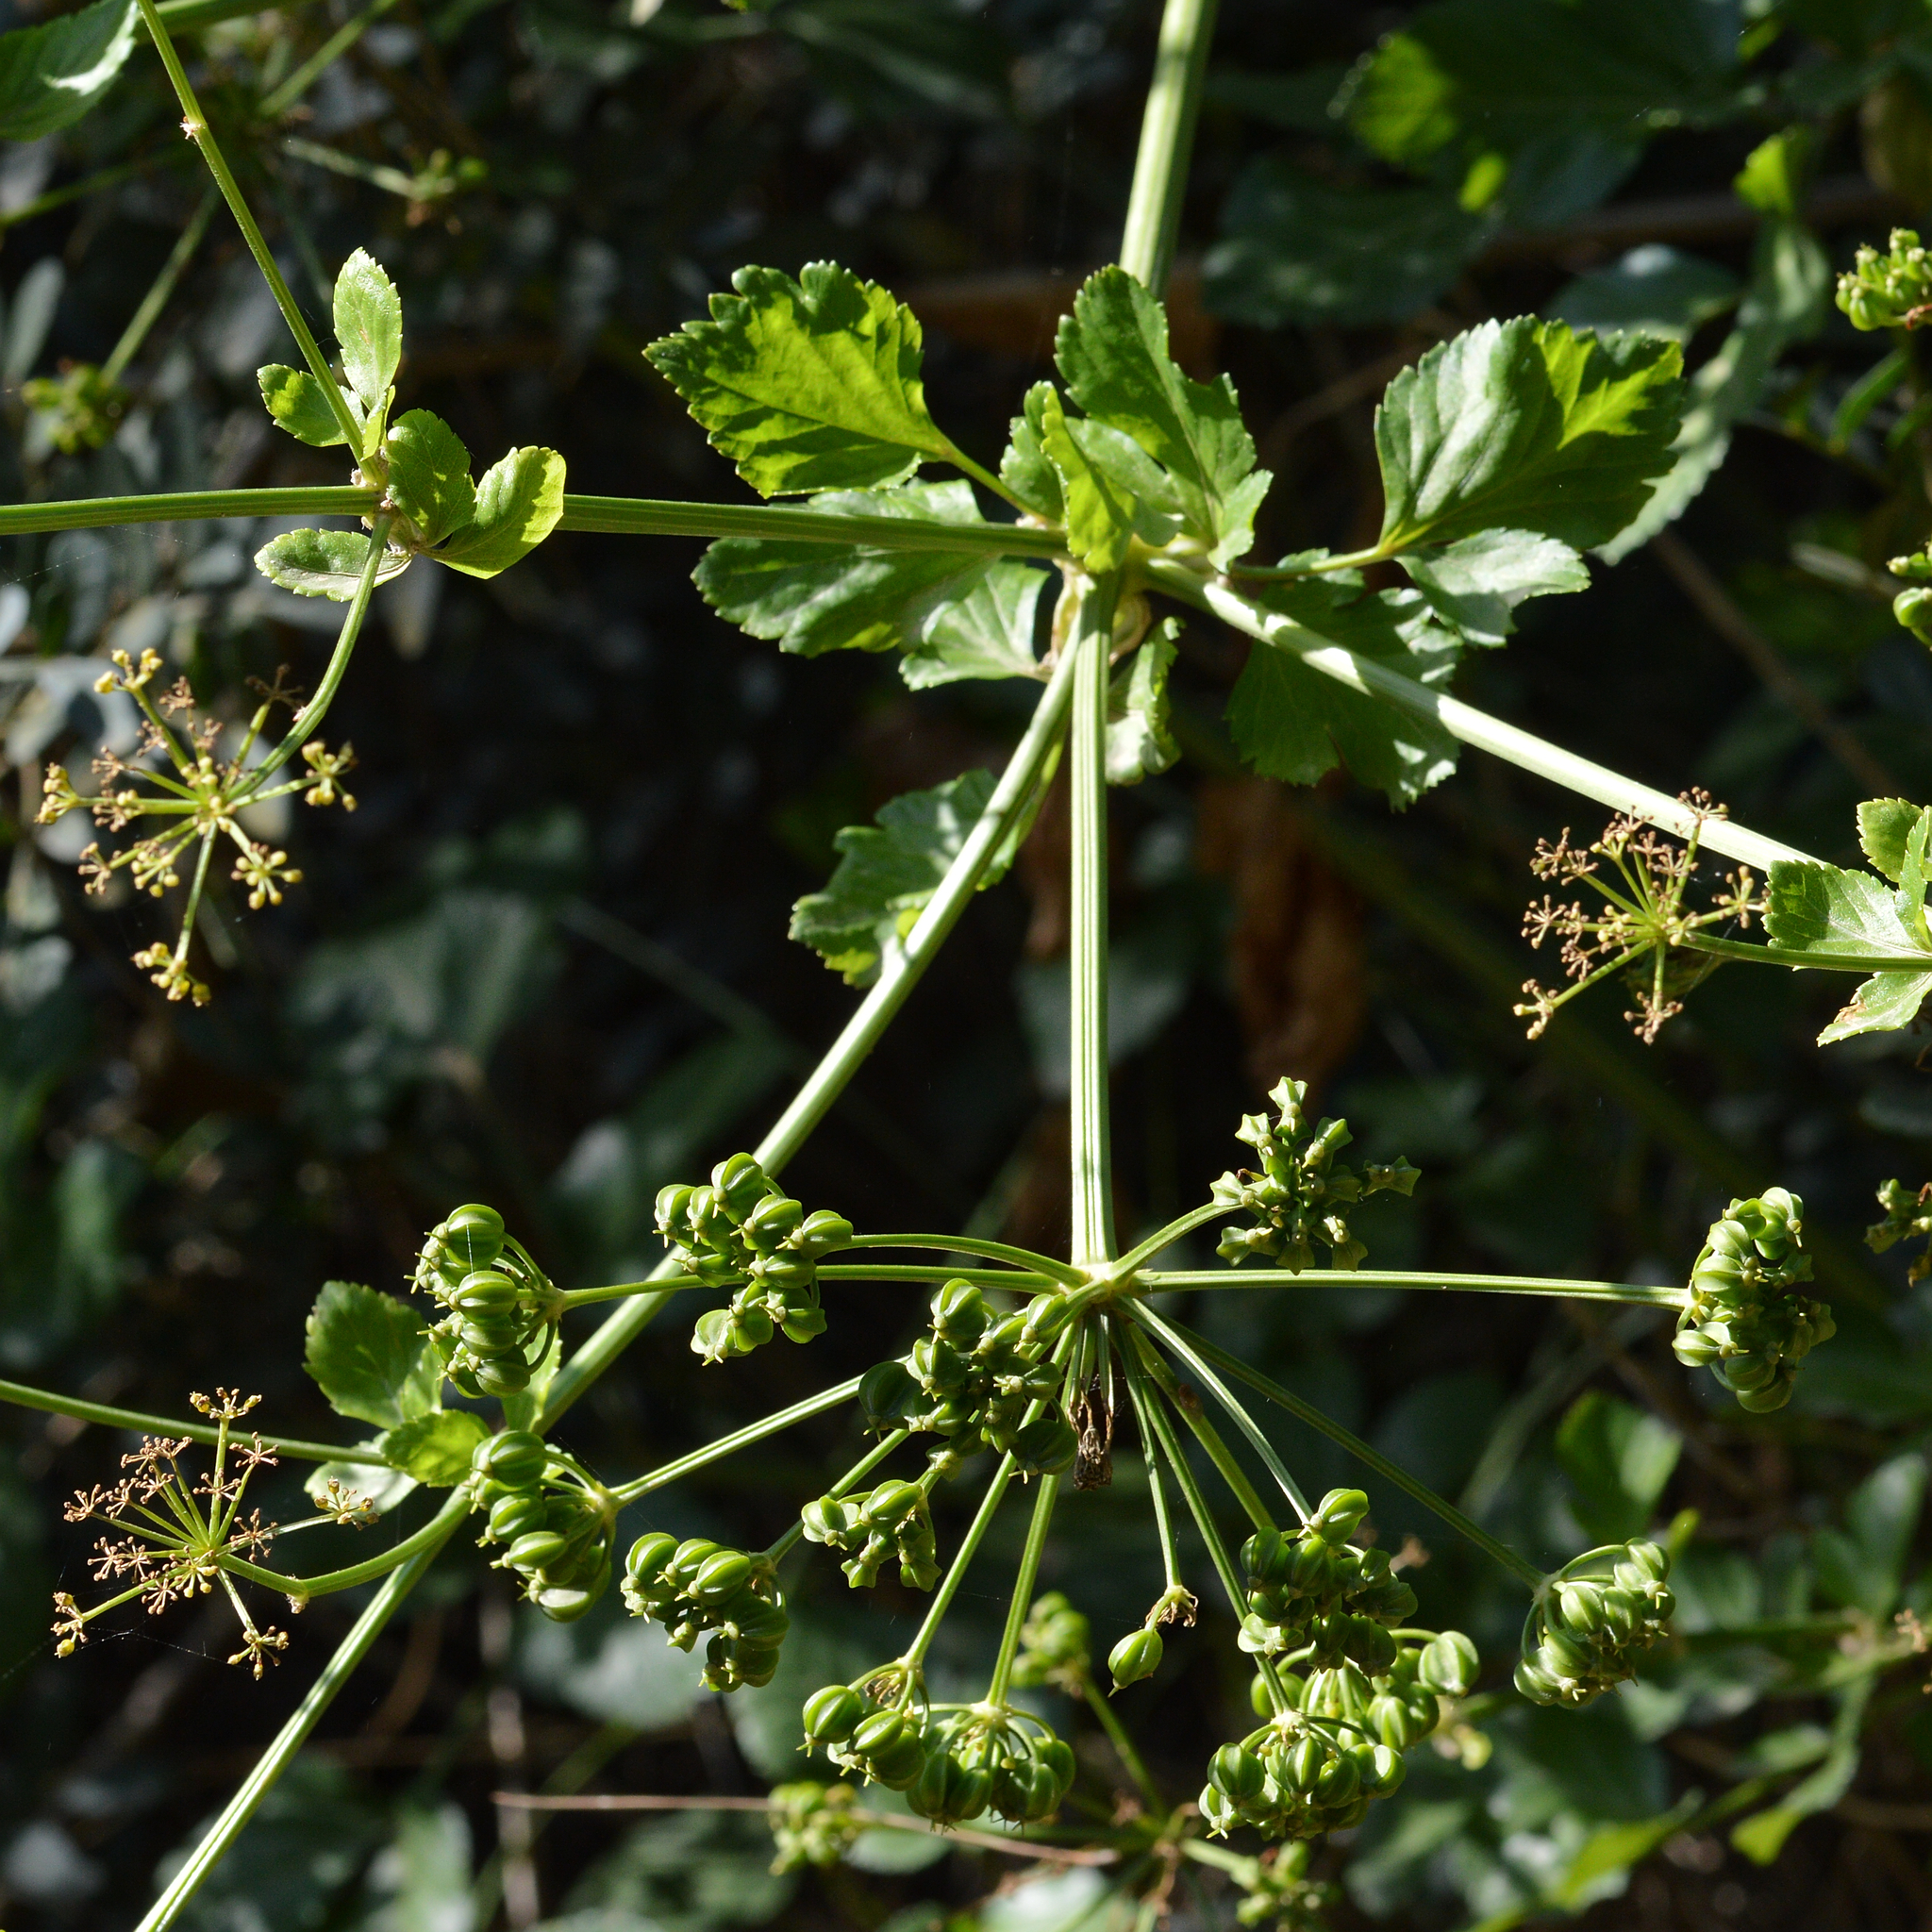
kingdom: Plantae
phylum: Tracheophyta
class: Magnoliopsida
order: Apiales
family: Apiaceae
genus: Smyrnium
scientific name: Smyrnium olusatrum
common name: Alexanders
